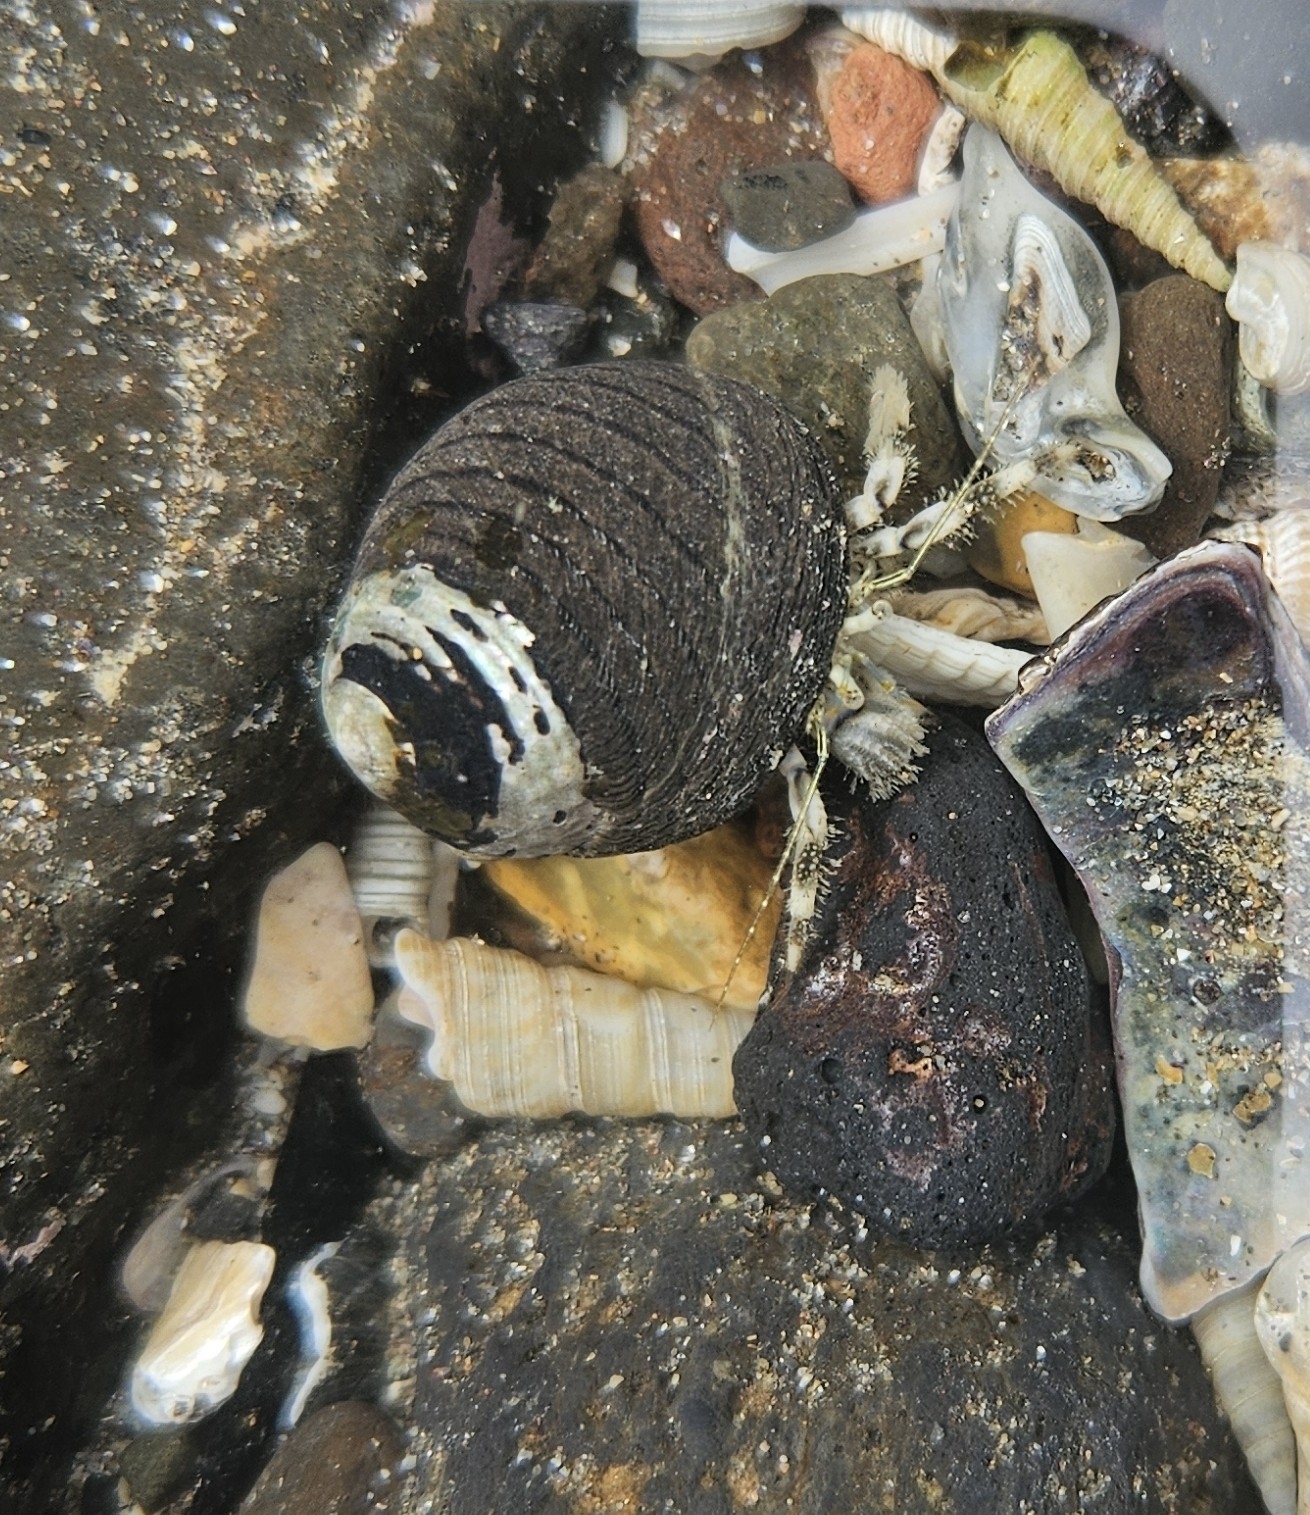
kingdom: Animalia
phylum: Arthropoda
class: Malacostraca
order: Decapoda
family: Paguridae
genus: Pagurus
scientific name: Pagurus novizealandiae
